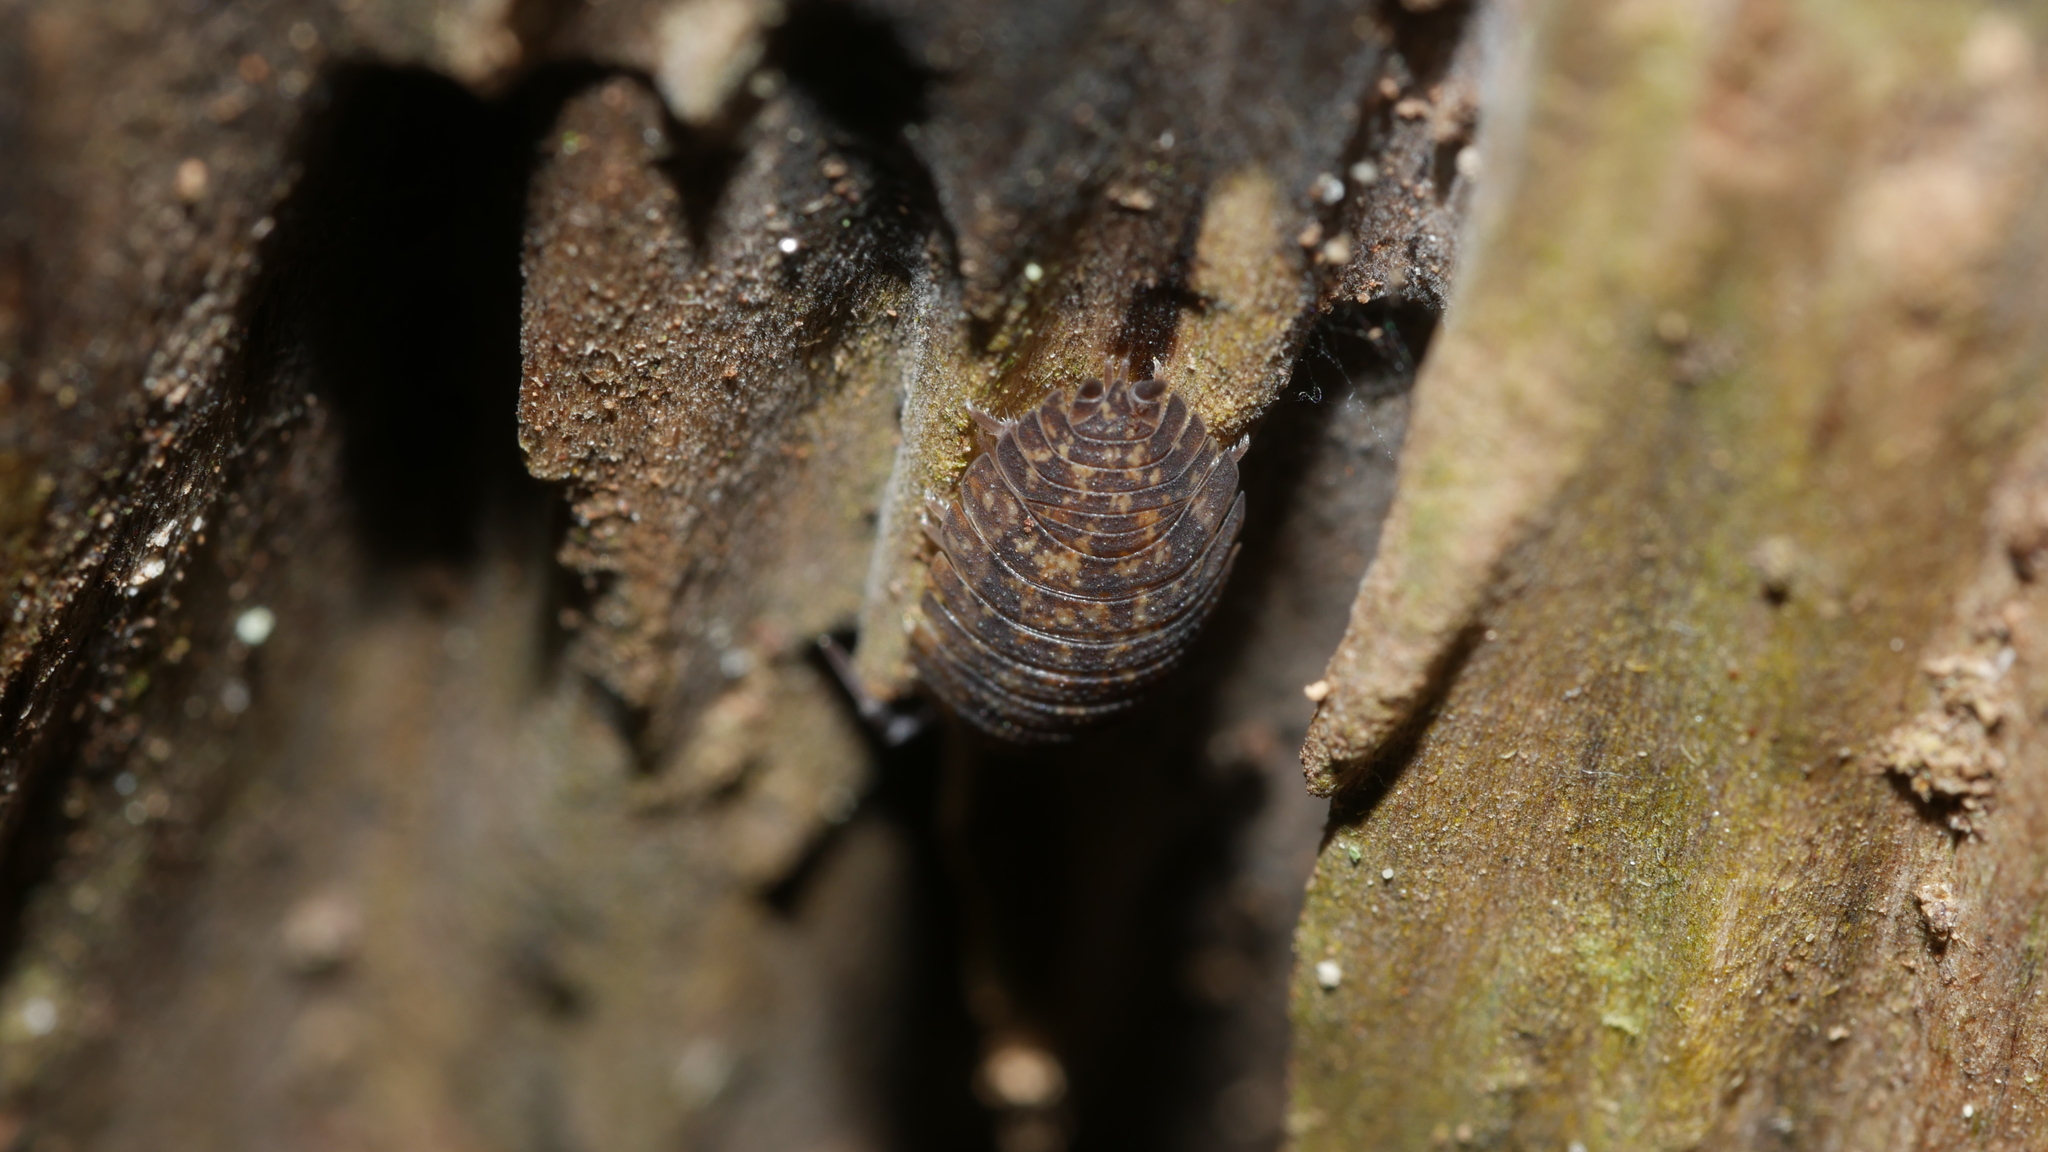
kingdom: Animalia
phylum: Arthropoda
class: Malacostraca
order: Isopoda
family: Porcellionidae
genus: Porcellio
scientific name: Porcellio scaber
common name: Common rough woodlouse
